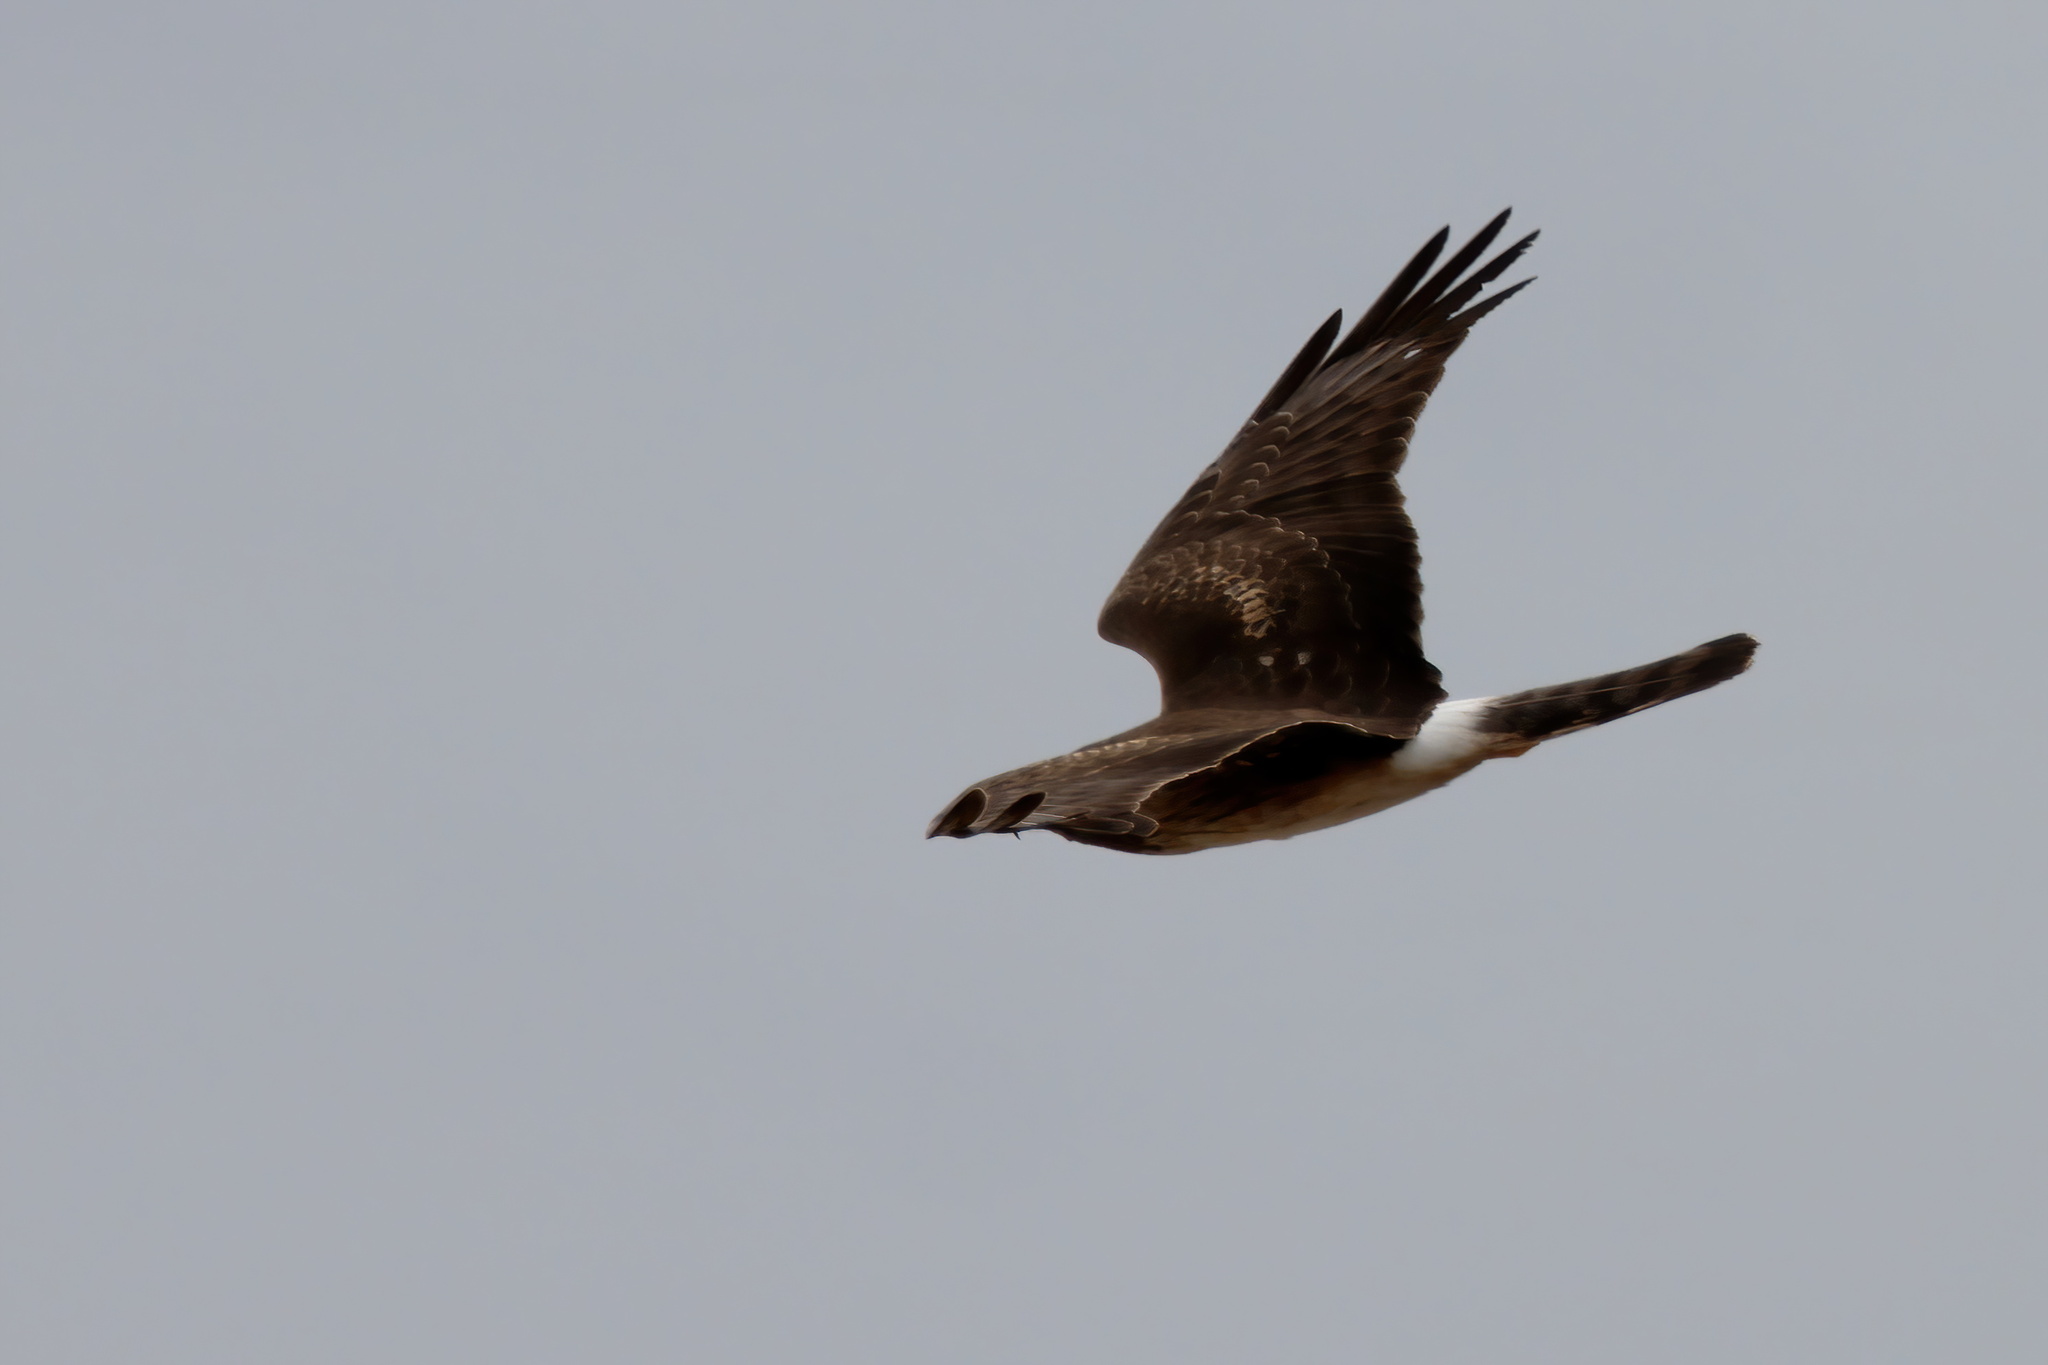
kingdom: Animalia
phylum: Chordata
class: Aves
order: Accipitriformes
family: Accipitridae
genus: Circus
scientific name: Circus cyaneus
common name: Hen harrier
